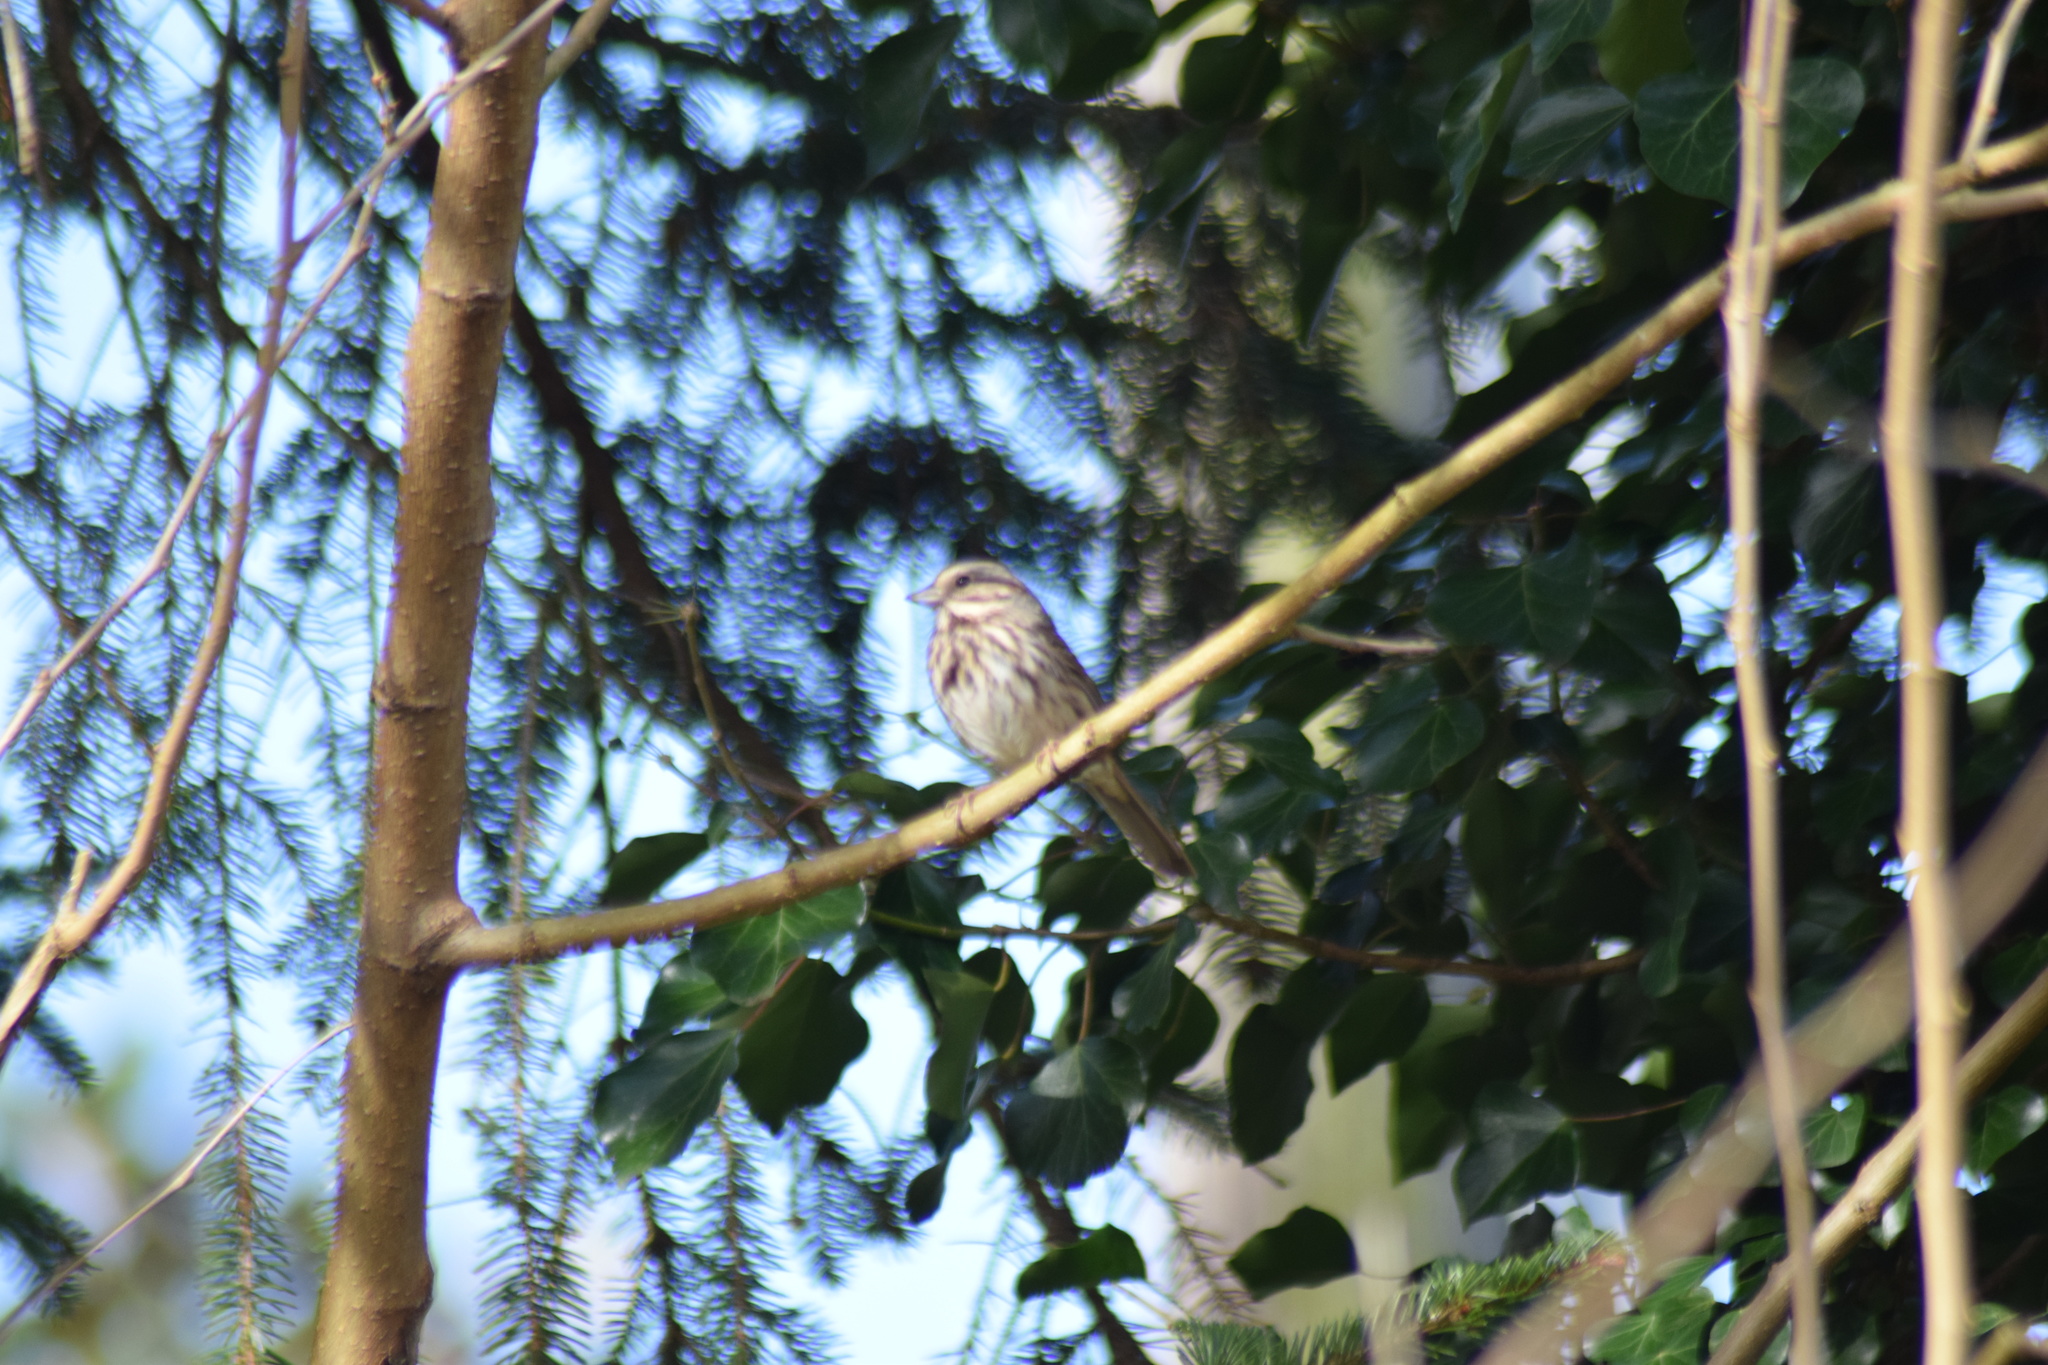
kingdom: Animalia
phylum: Chordata
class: Aves
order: Passeriformes
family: Passerellidae
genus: Melospiza
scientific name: Melospiza melodia
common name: Song sparrow
